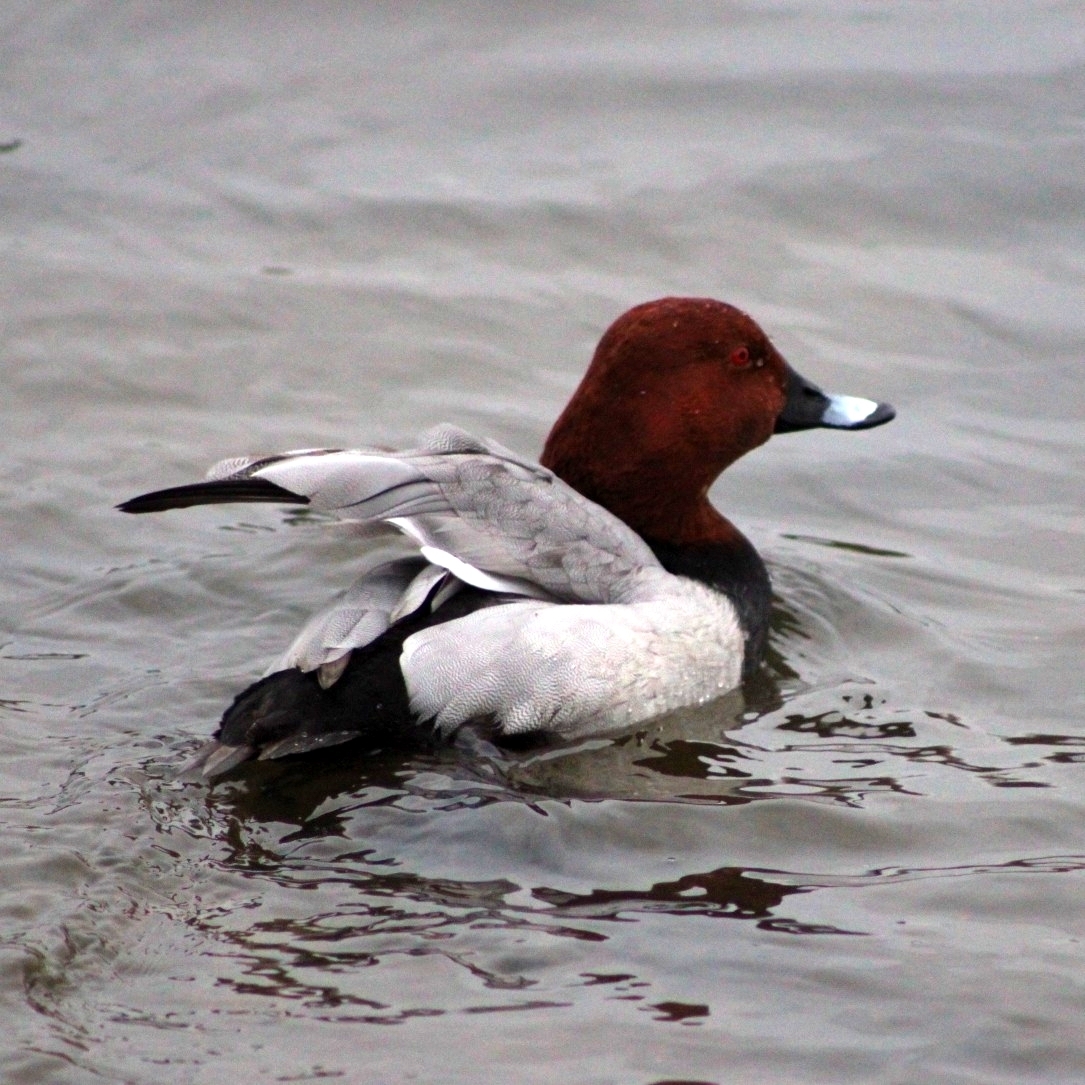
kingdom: Animalia
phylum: Chordata
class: Aves
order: Anseriformes
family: Anatidae
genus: Aythya
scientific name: Aythya ferina
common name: Common pochard
